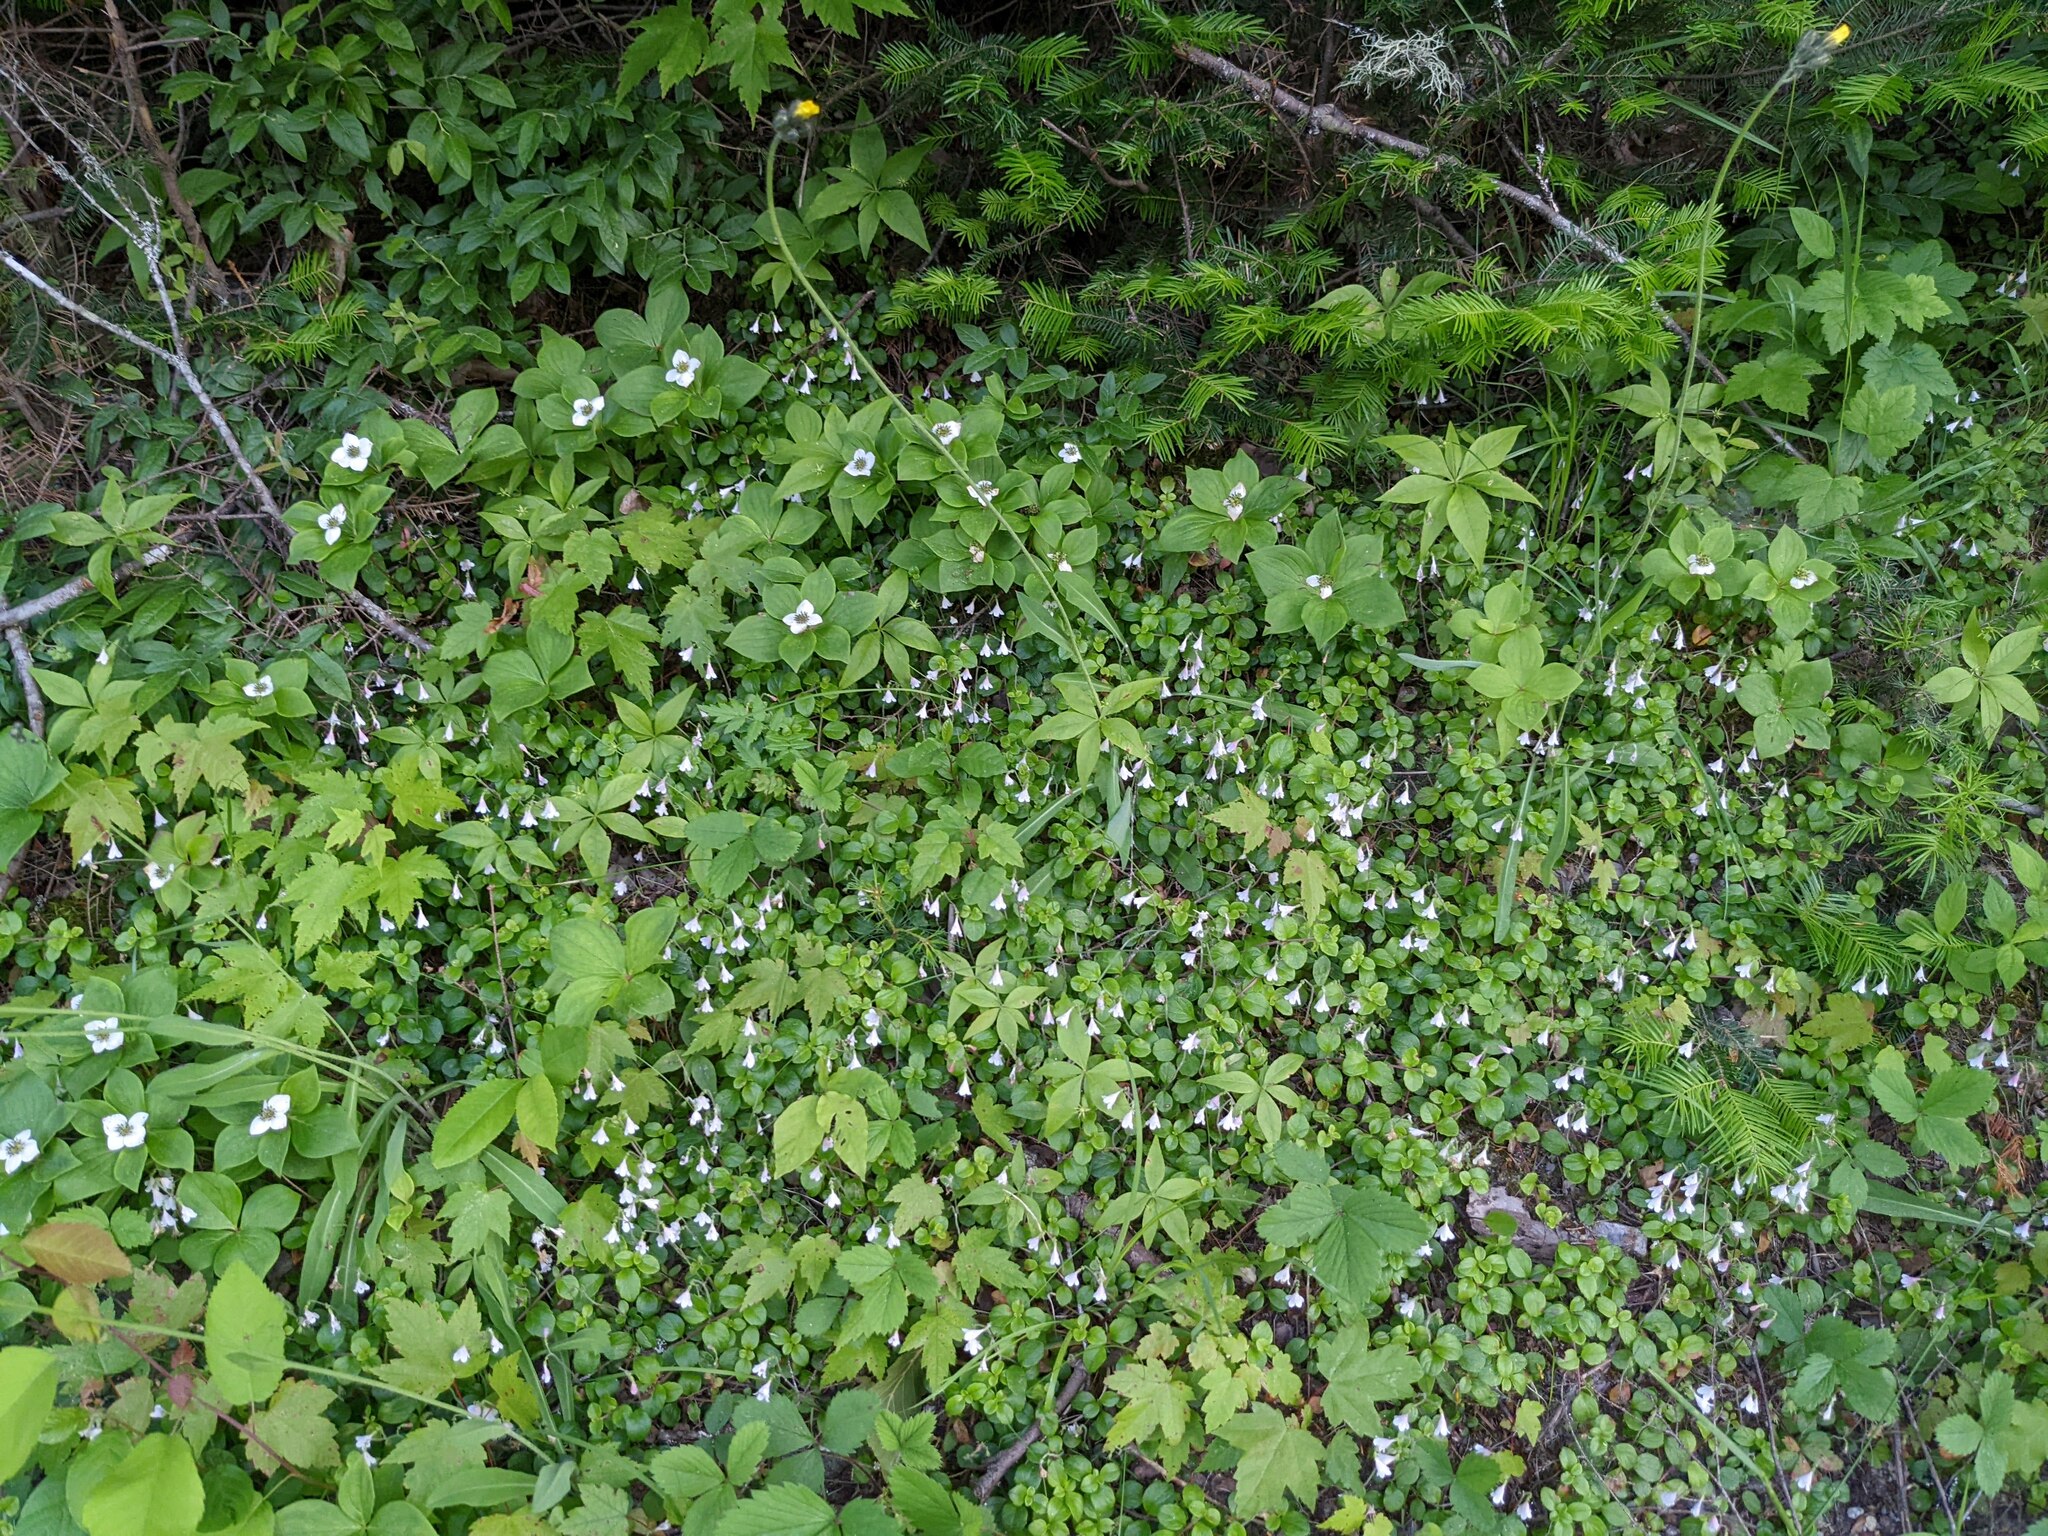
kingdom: Plantae
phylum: Tracheophyta
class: Magnoliopsida
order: Dipsacales
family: Caprifoliaceae
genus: Linnaea
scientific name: Linnaea borealis
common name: Twinflower
